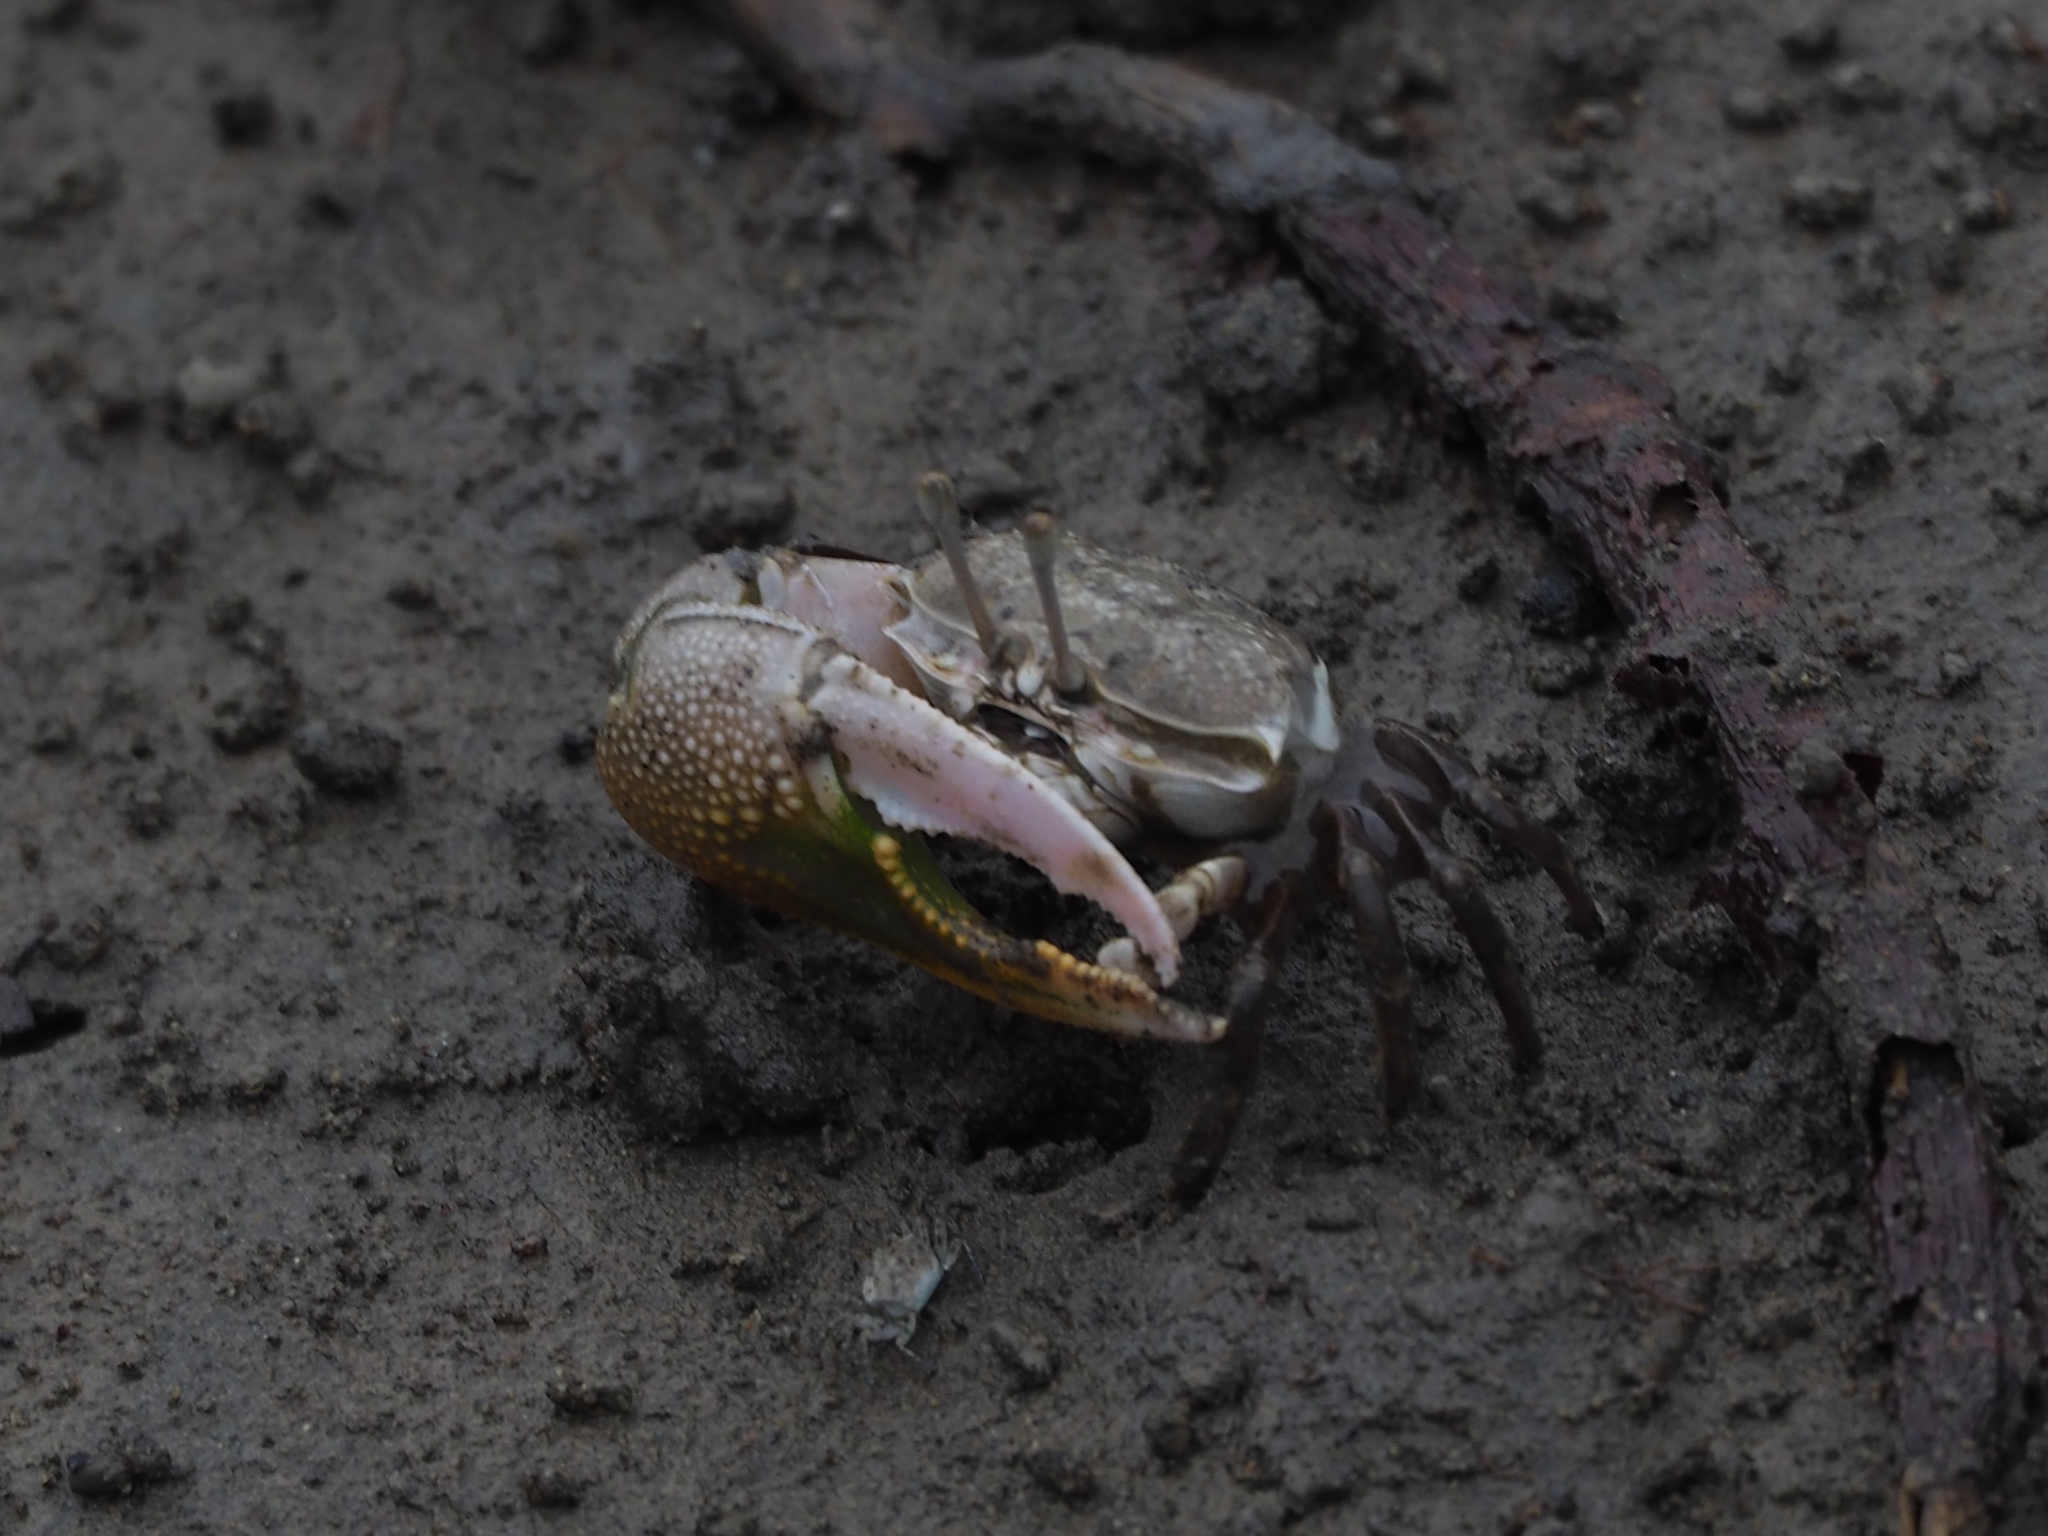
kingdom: Animalia
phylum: Arthropoda
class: Malacostraca
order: Decapoda
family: Ocypodidae
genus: Gelasimus
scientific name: Gelasimus borealis
